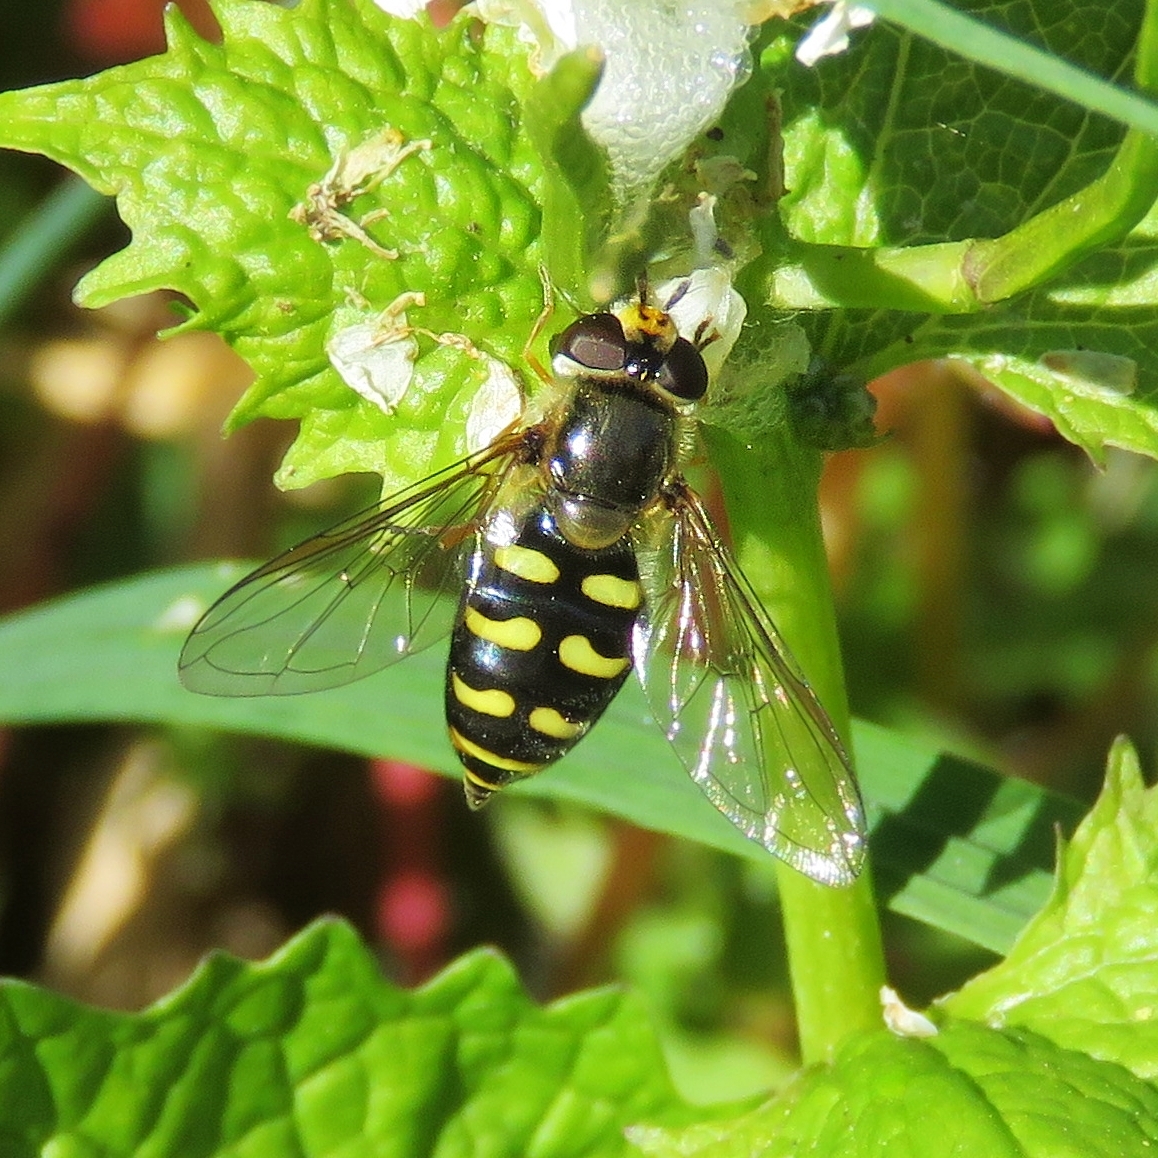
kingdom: Animalia
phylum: Arthropoda
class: Insecta
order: Diptera
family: Syrphidae
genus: Eupeodes
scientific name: Eupeodes luniger
